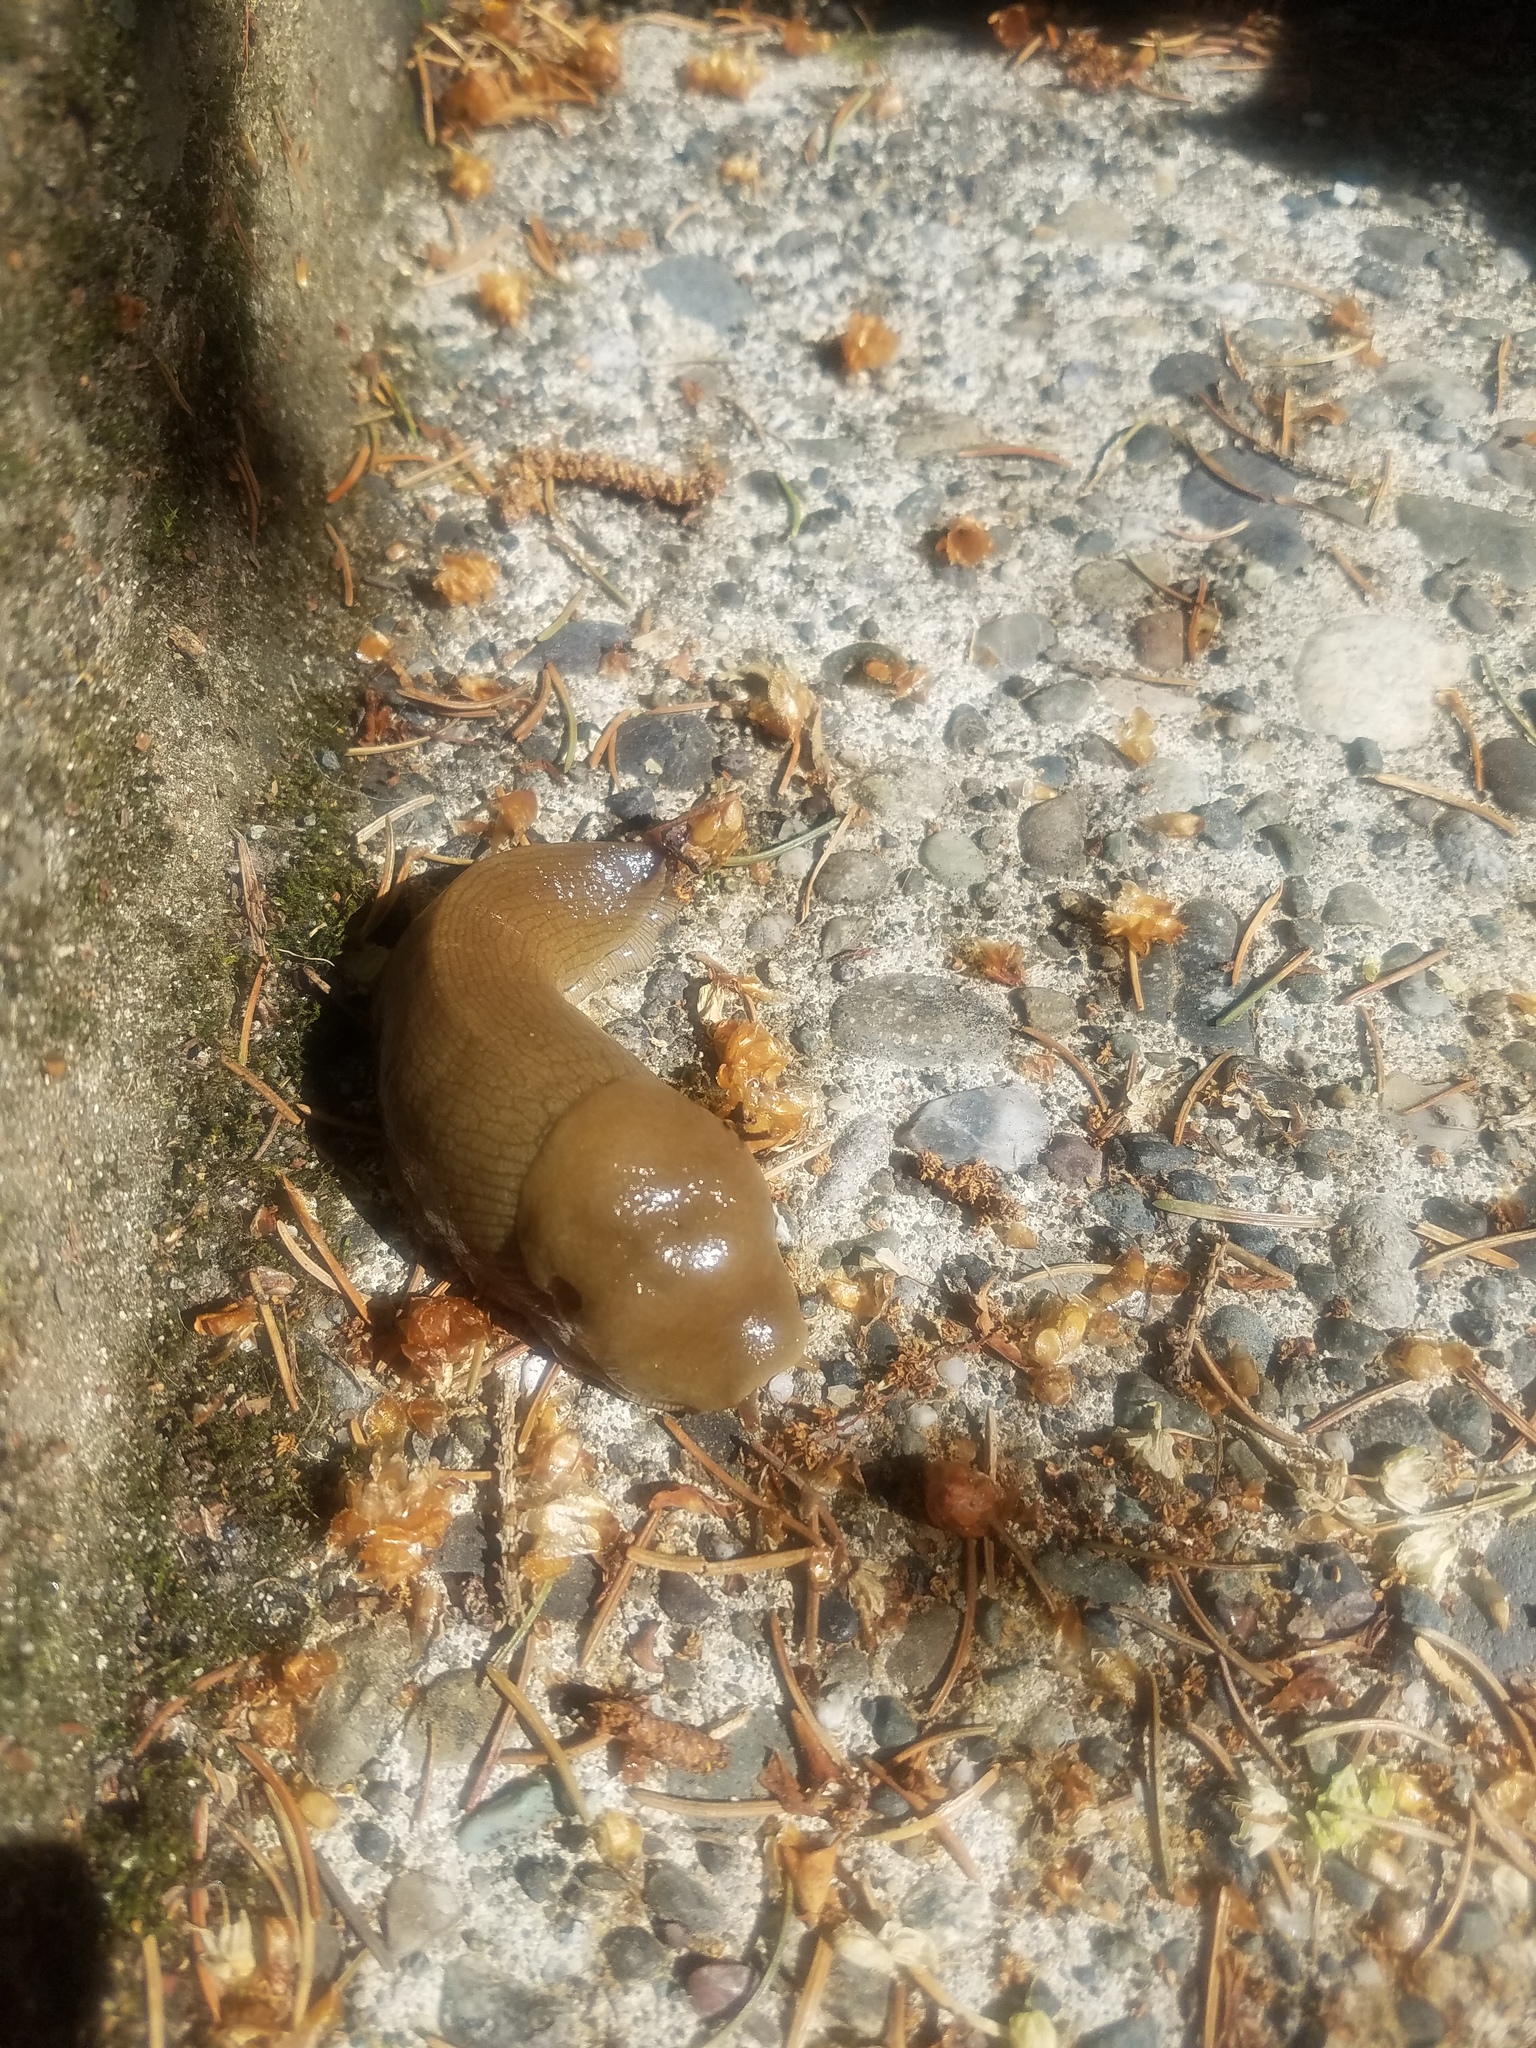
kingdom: Animalia
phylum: Mollusca
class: Gastropoda
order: Stylommatophora
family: Ariolimacidae
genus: Ariolimax
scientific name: Ariolimax columbianus
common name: Pacific banana slug
